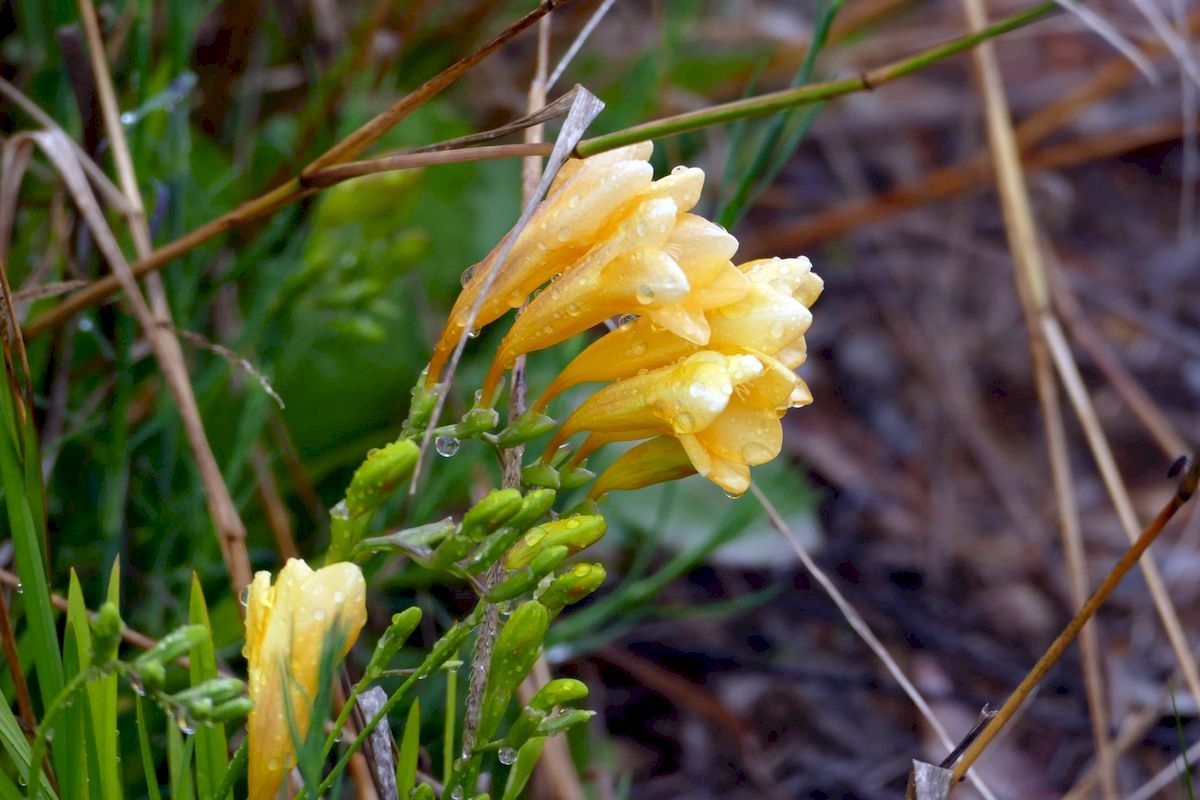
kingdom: Plantae
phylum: Tracheophyta
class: Liliopsida
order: Asparagales
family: Iridaceae
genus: Freesia
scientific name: Freesia leichtlinii
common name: Freesia
